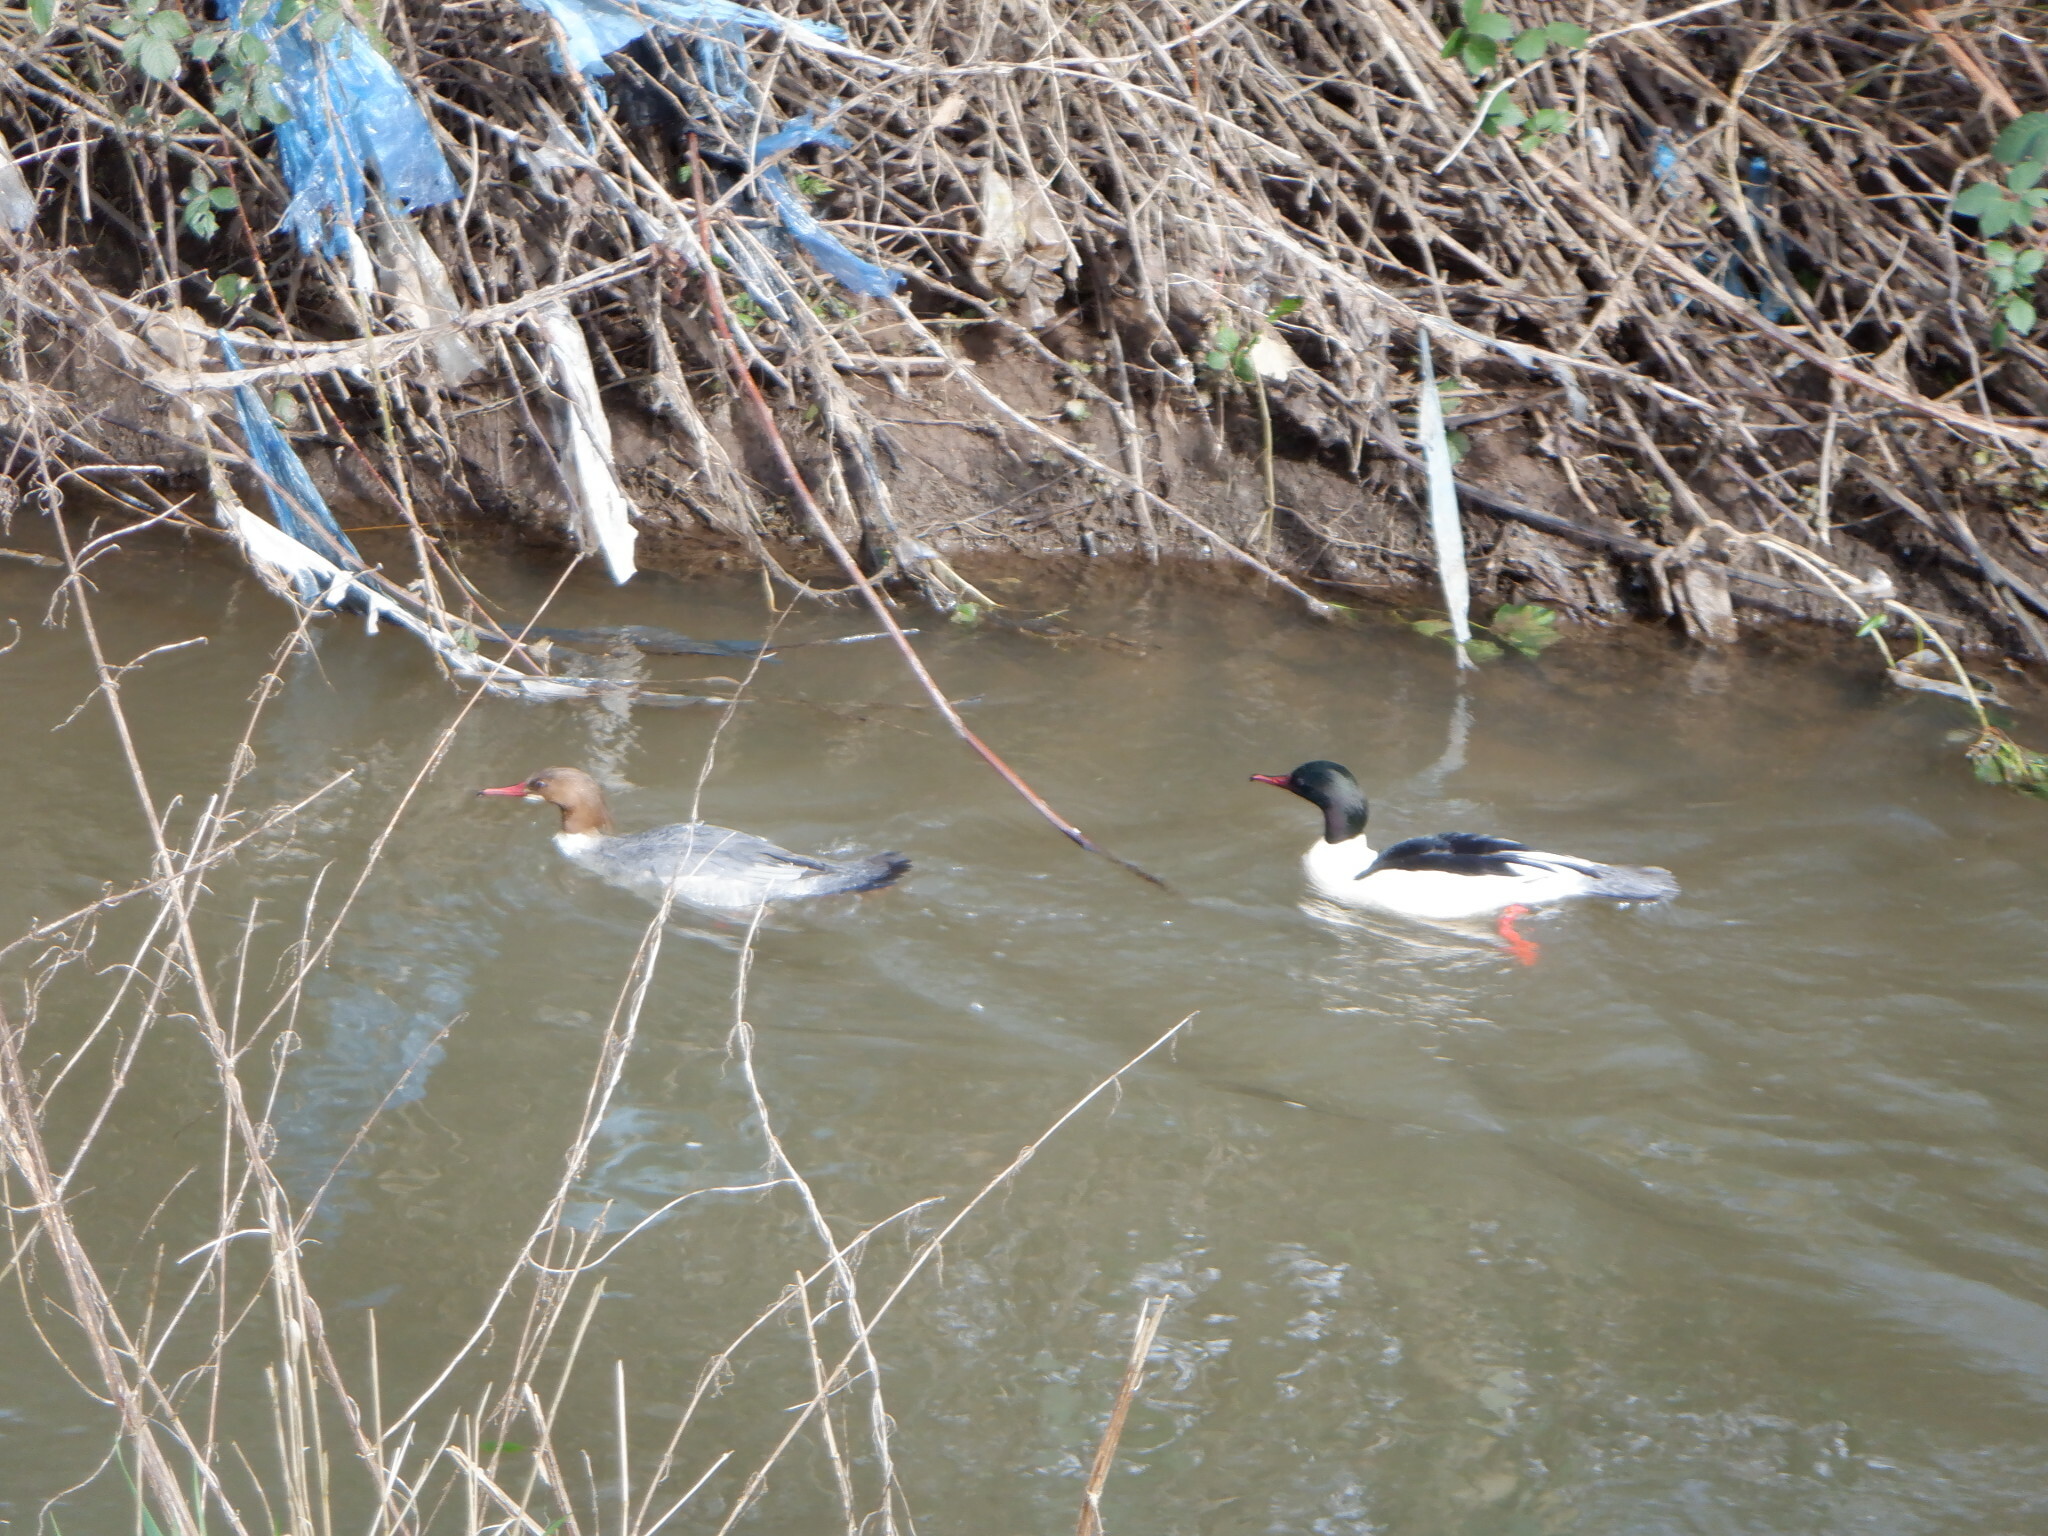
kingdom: Animalia
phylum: Chordata
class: Aves
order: Anseriformes
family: Anatidae
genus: Mergus
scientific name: Mergus merganser
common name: Common merganser
